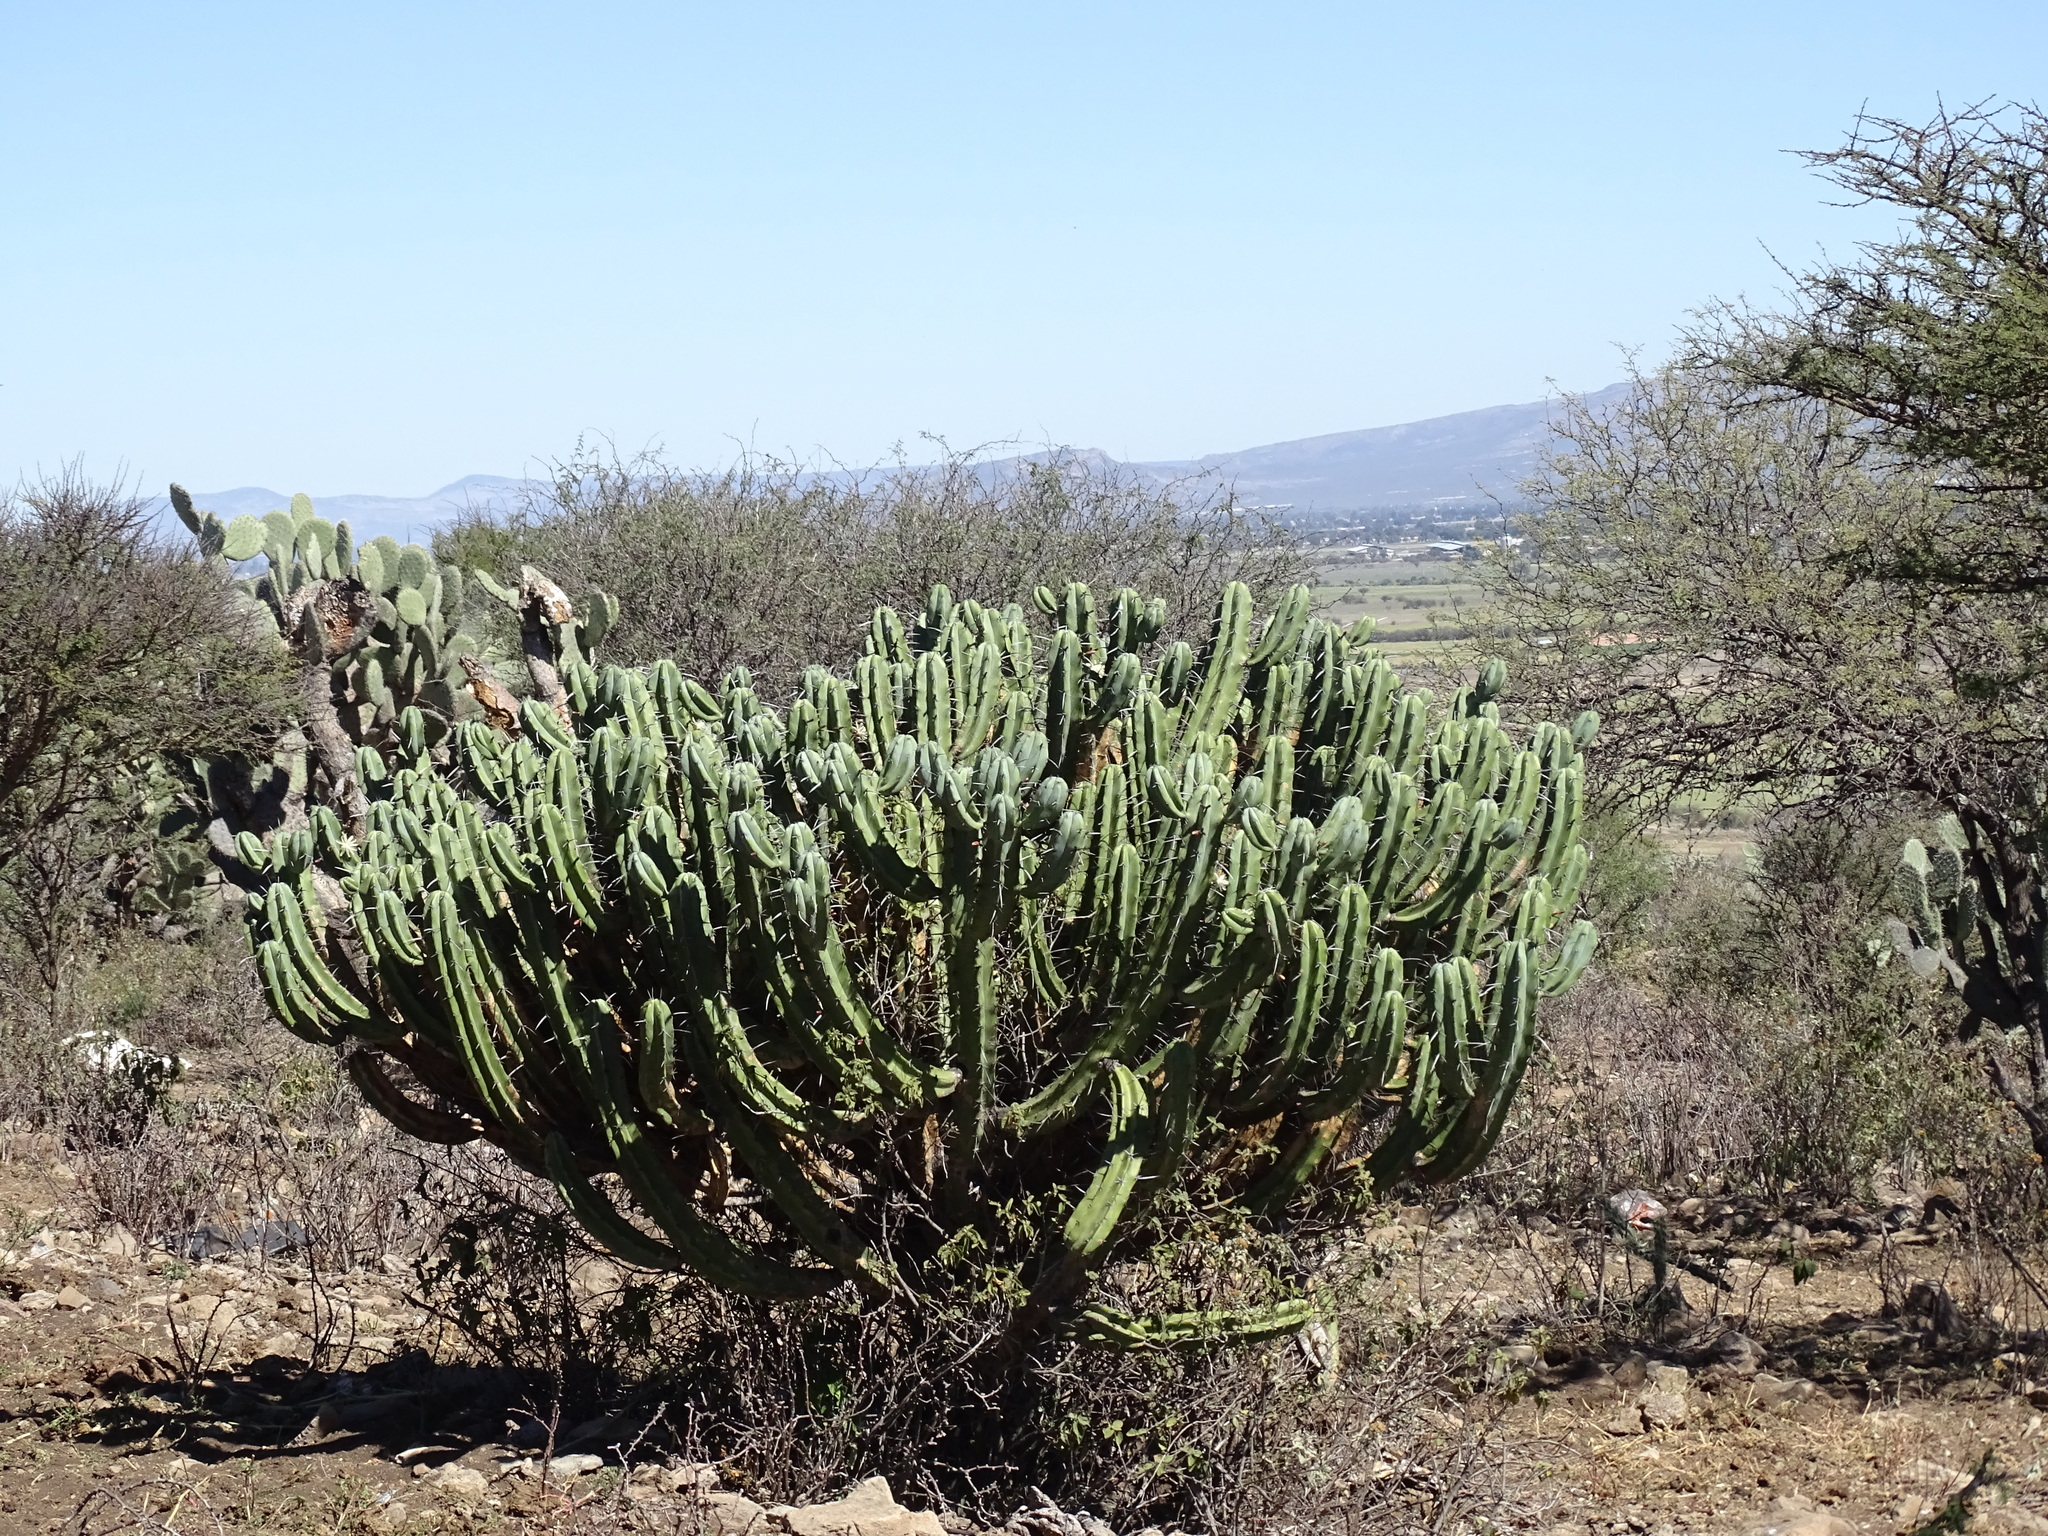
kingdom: Plantae
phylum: Tracheophyta
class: Magnoliopsida
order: Caryophyllales
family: Cactaceae
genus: Myrtillocactus
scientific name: Myrtillocactus geometrizans
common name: Bilberry cactus
